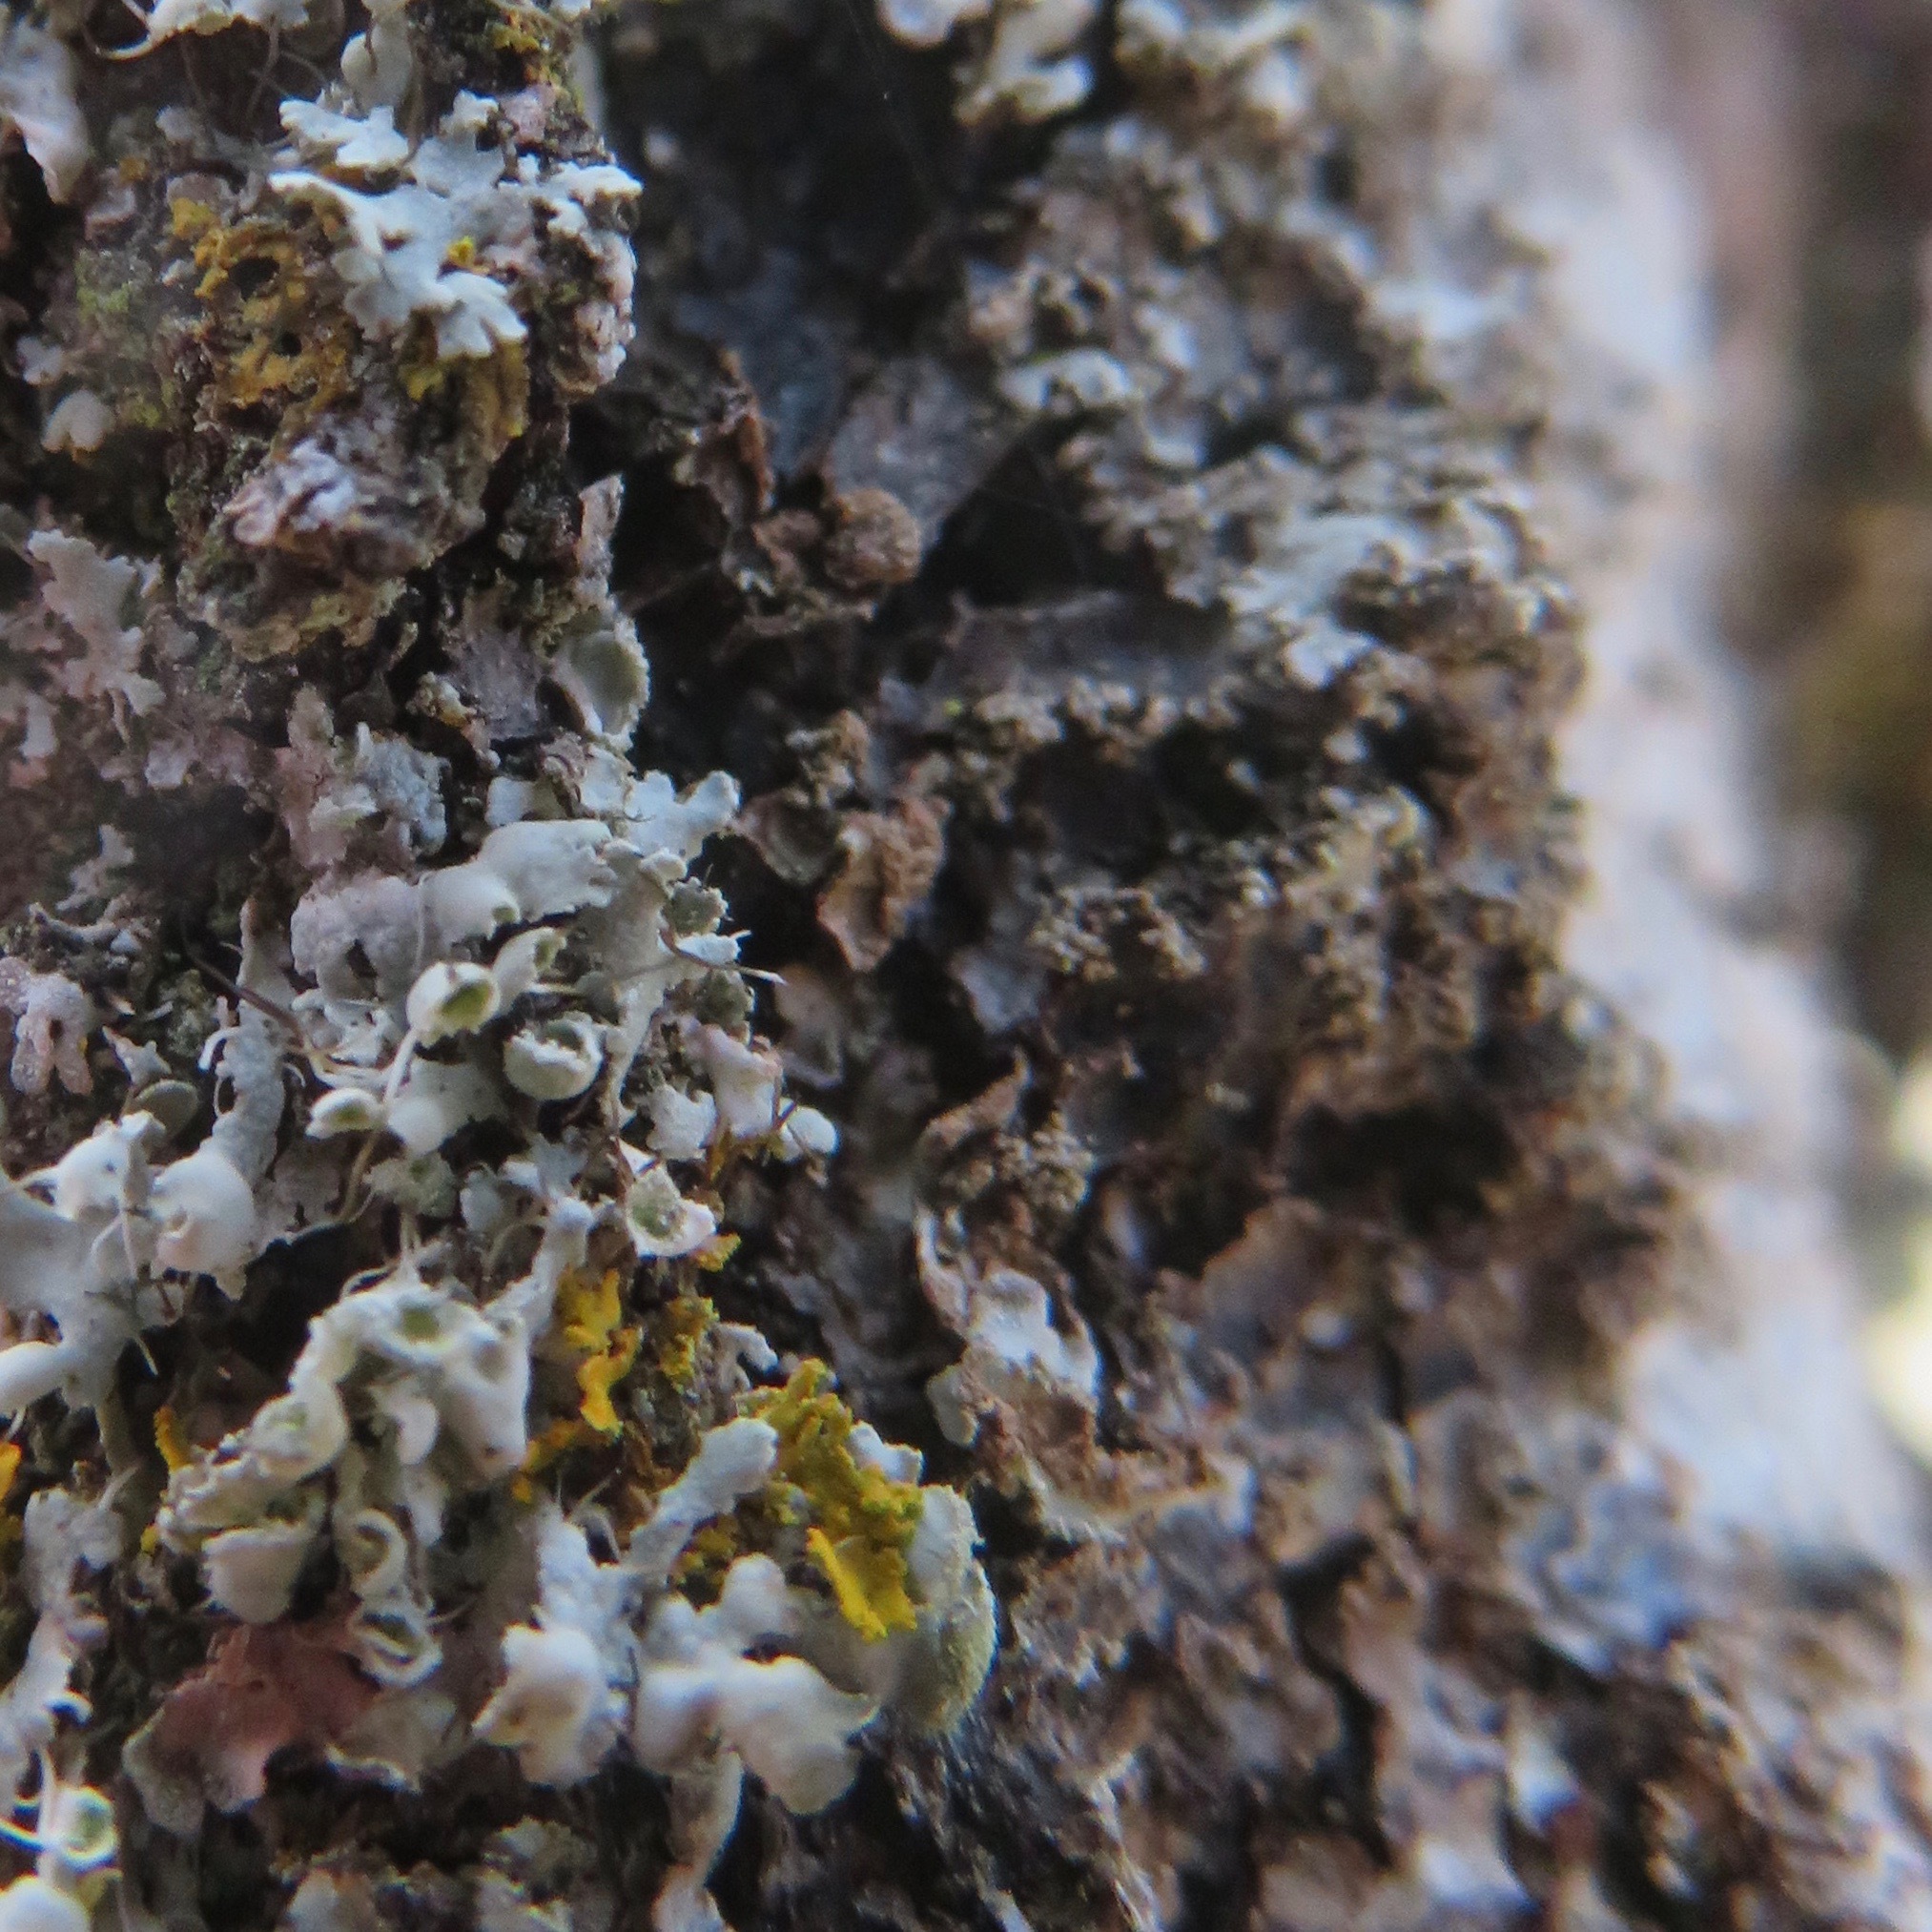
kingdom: Fungi
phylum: Ascomycota
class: Lecanoromycetes
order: Caliciales
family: Physciaceae
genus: Physcia
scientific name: Physcia adscendens
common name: Hooded rosette lichen
